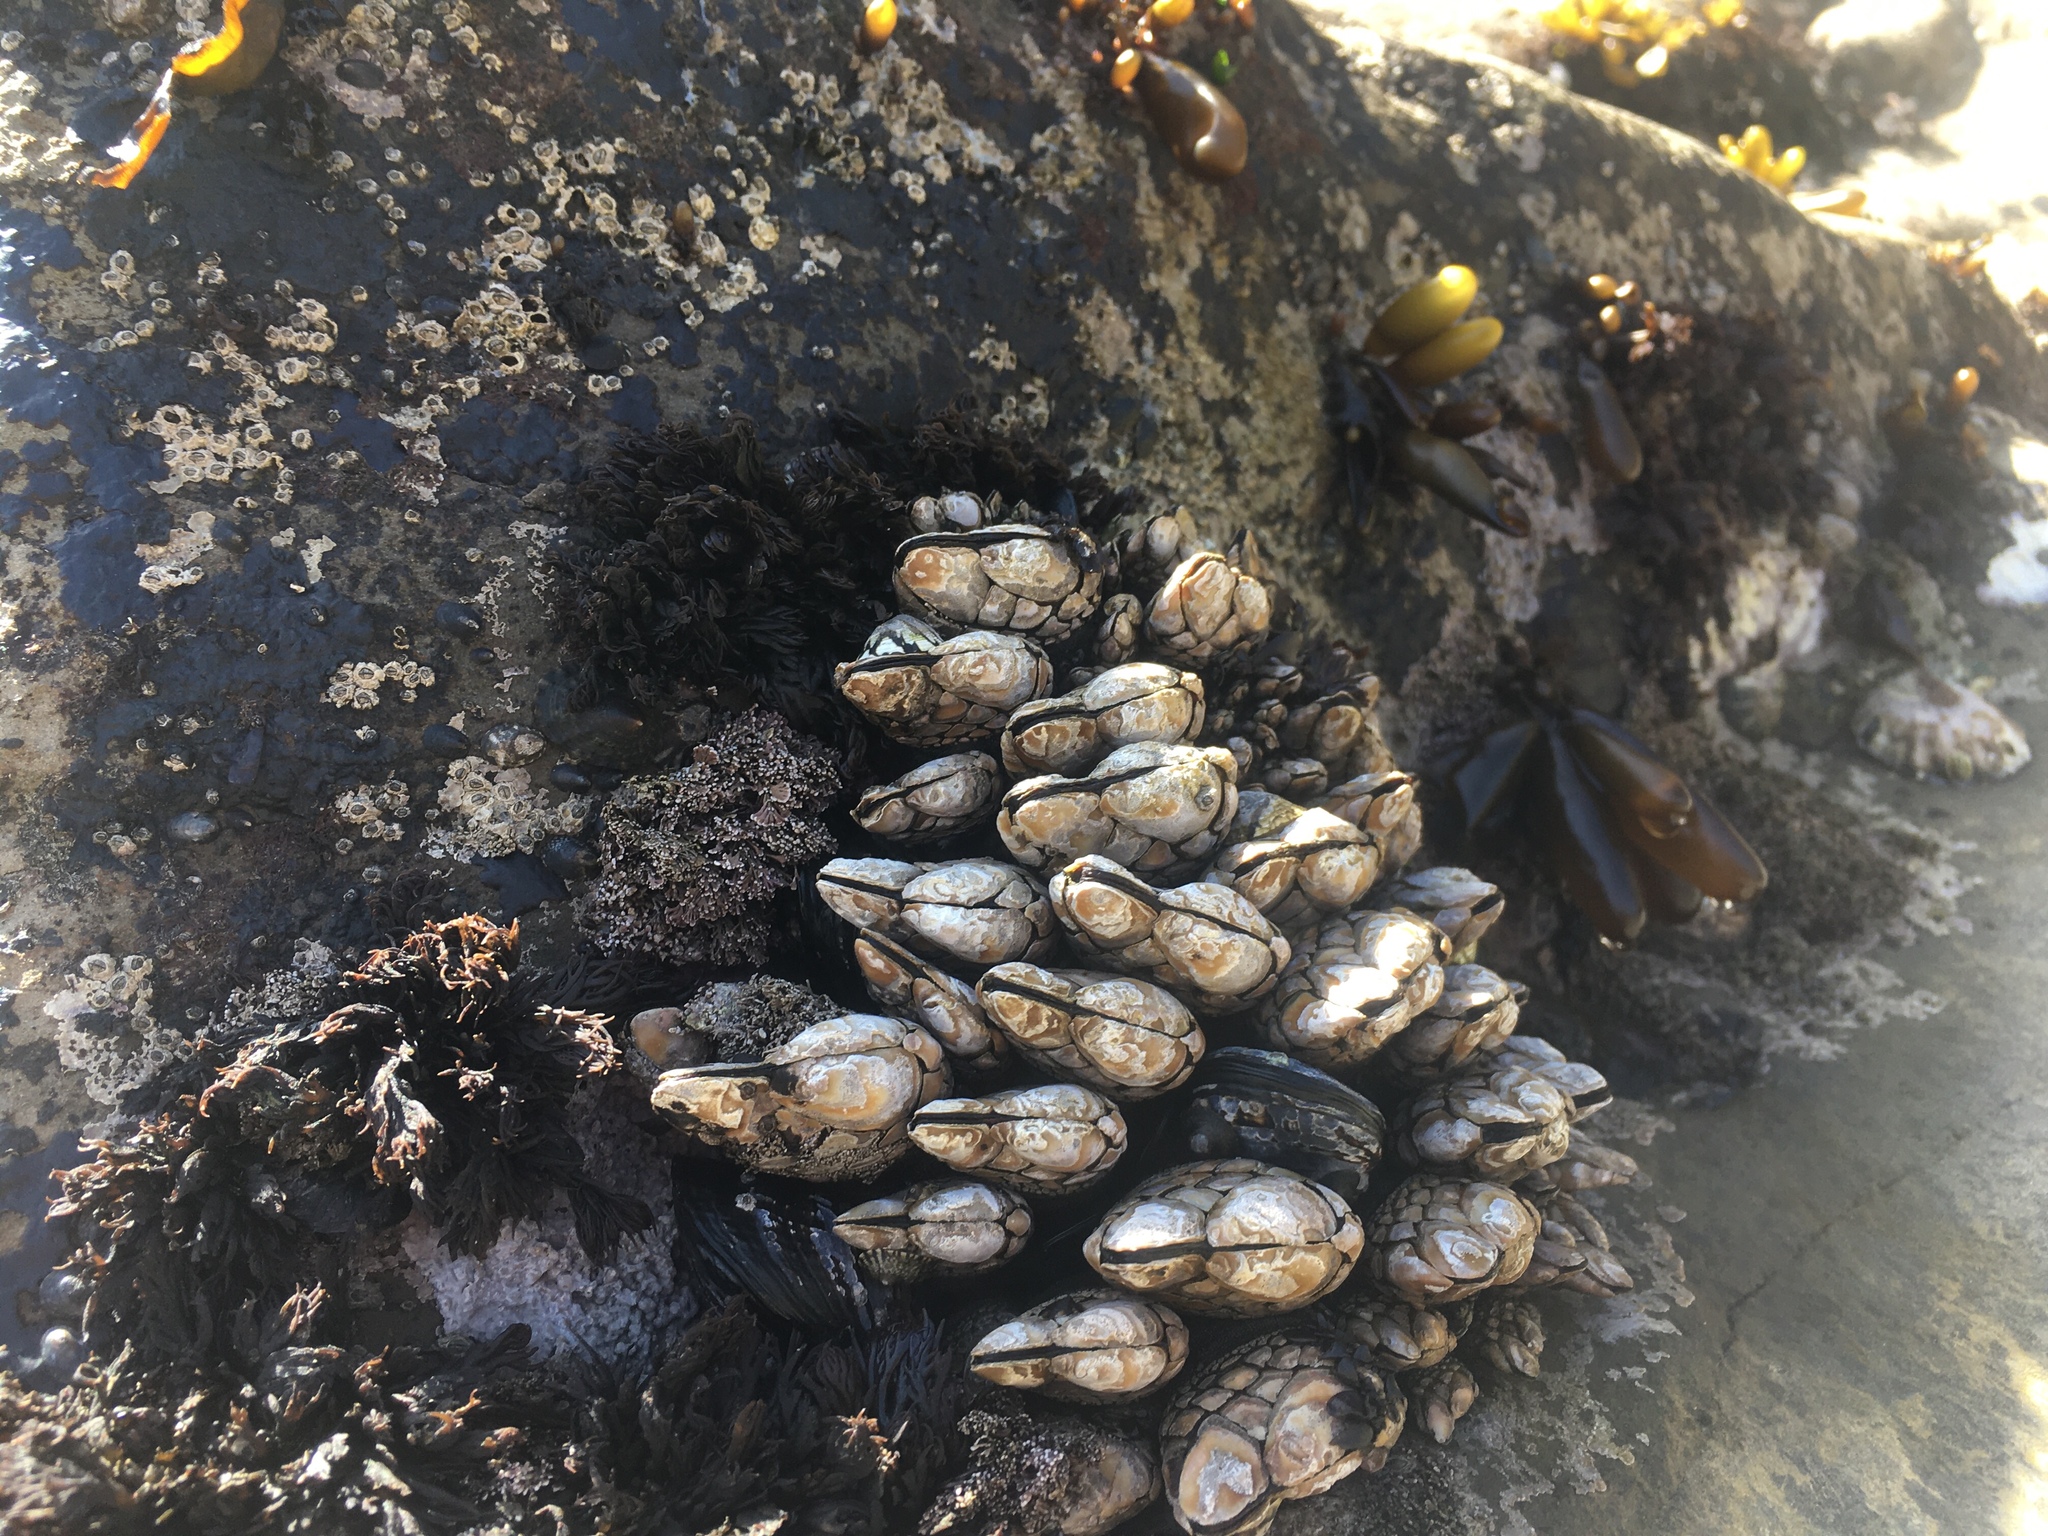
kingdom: Animalia
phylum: Arthropoda
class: Maxillopoda
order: Pedunculata
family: Pollicipedidae
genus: Pollicipes
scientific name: Pollicipes polymerus
